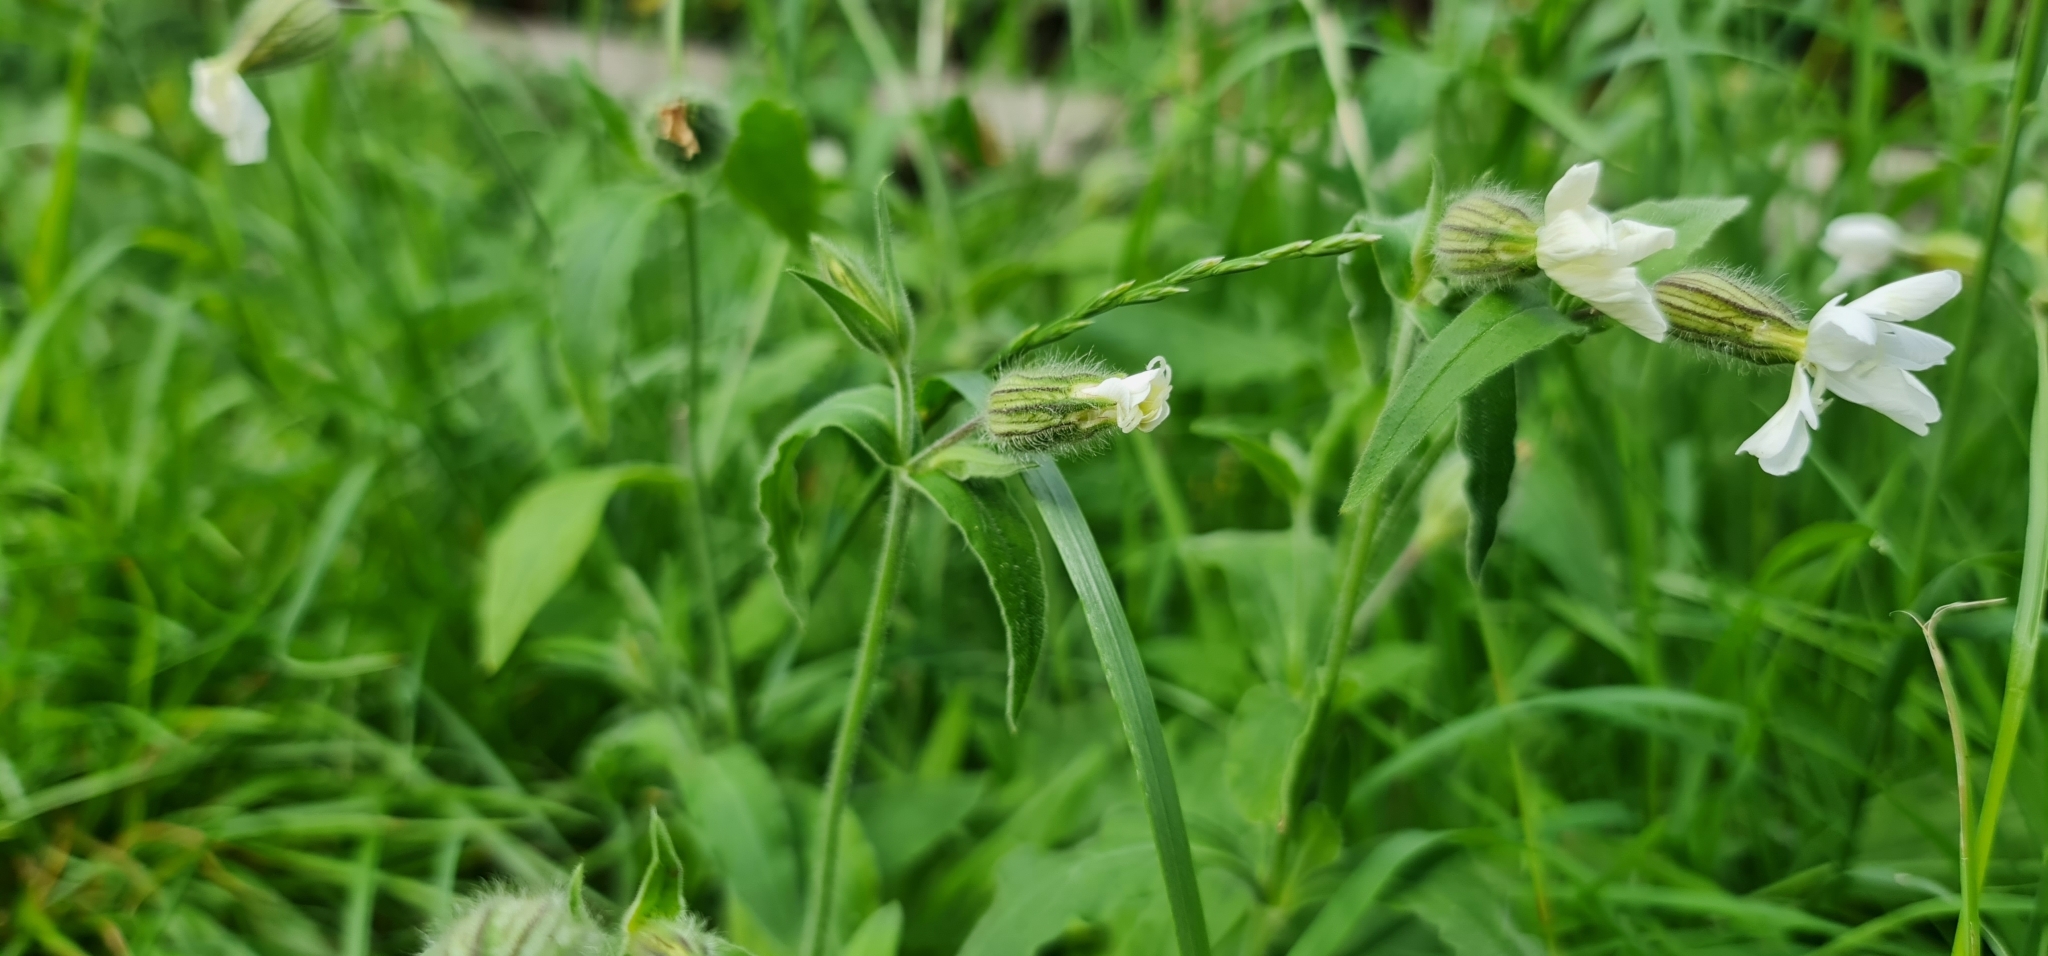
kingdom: Plantae
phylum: Tracheophyta
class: Magnoliopsida
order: Caryophyllales
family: Caryophyllaceae
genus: Silene
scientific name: Silene latifolia
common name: White campion
